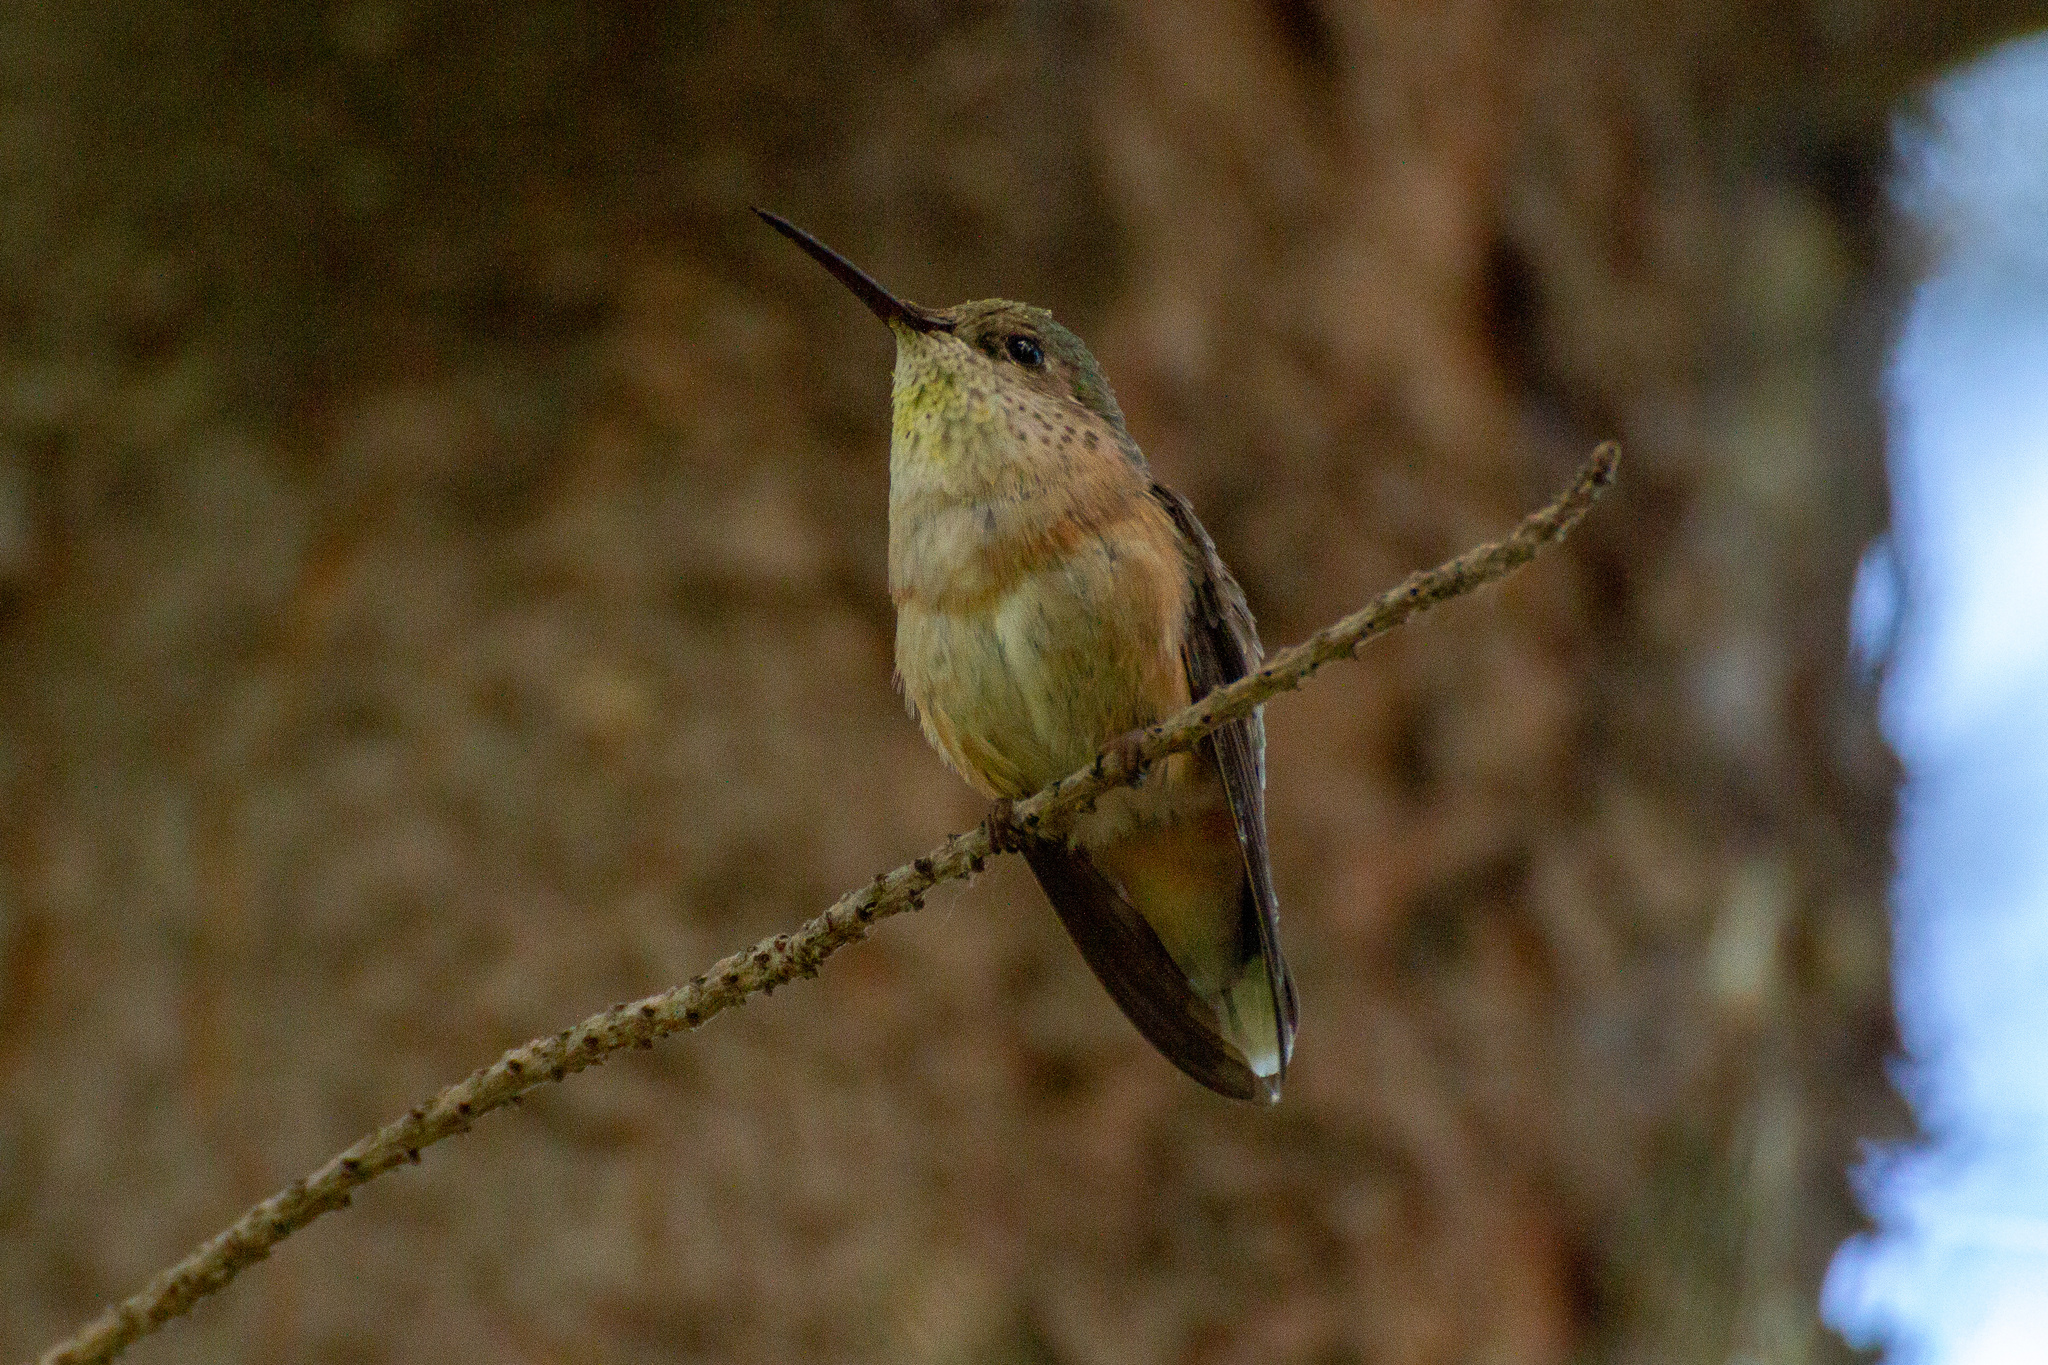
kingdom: Animalia
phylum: Chordata
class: Aves
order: Apodiformes
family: Trochilidae
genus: Selasphorus
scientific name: Selasphorus calliope
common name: Calliope hummingbird
